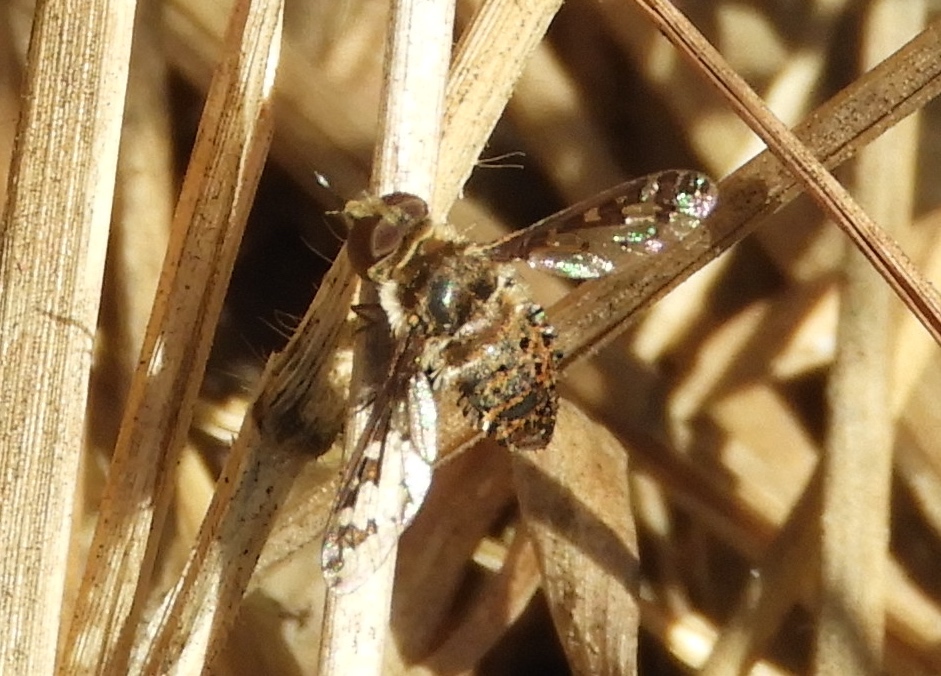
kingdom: Animalia
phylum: Arthropoda
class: Insecta
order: Diptera
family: Bombyliidae
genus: Lepidanthrax
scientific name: Lepidanthrax
